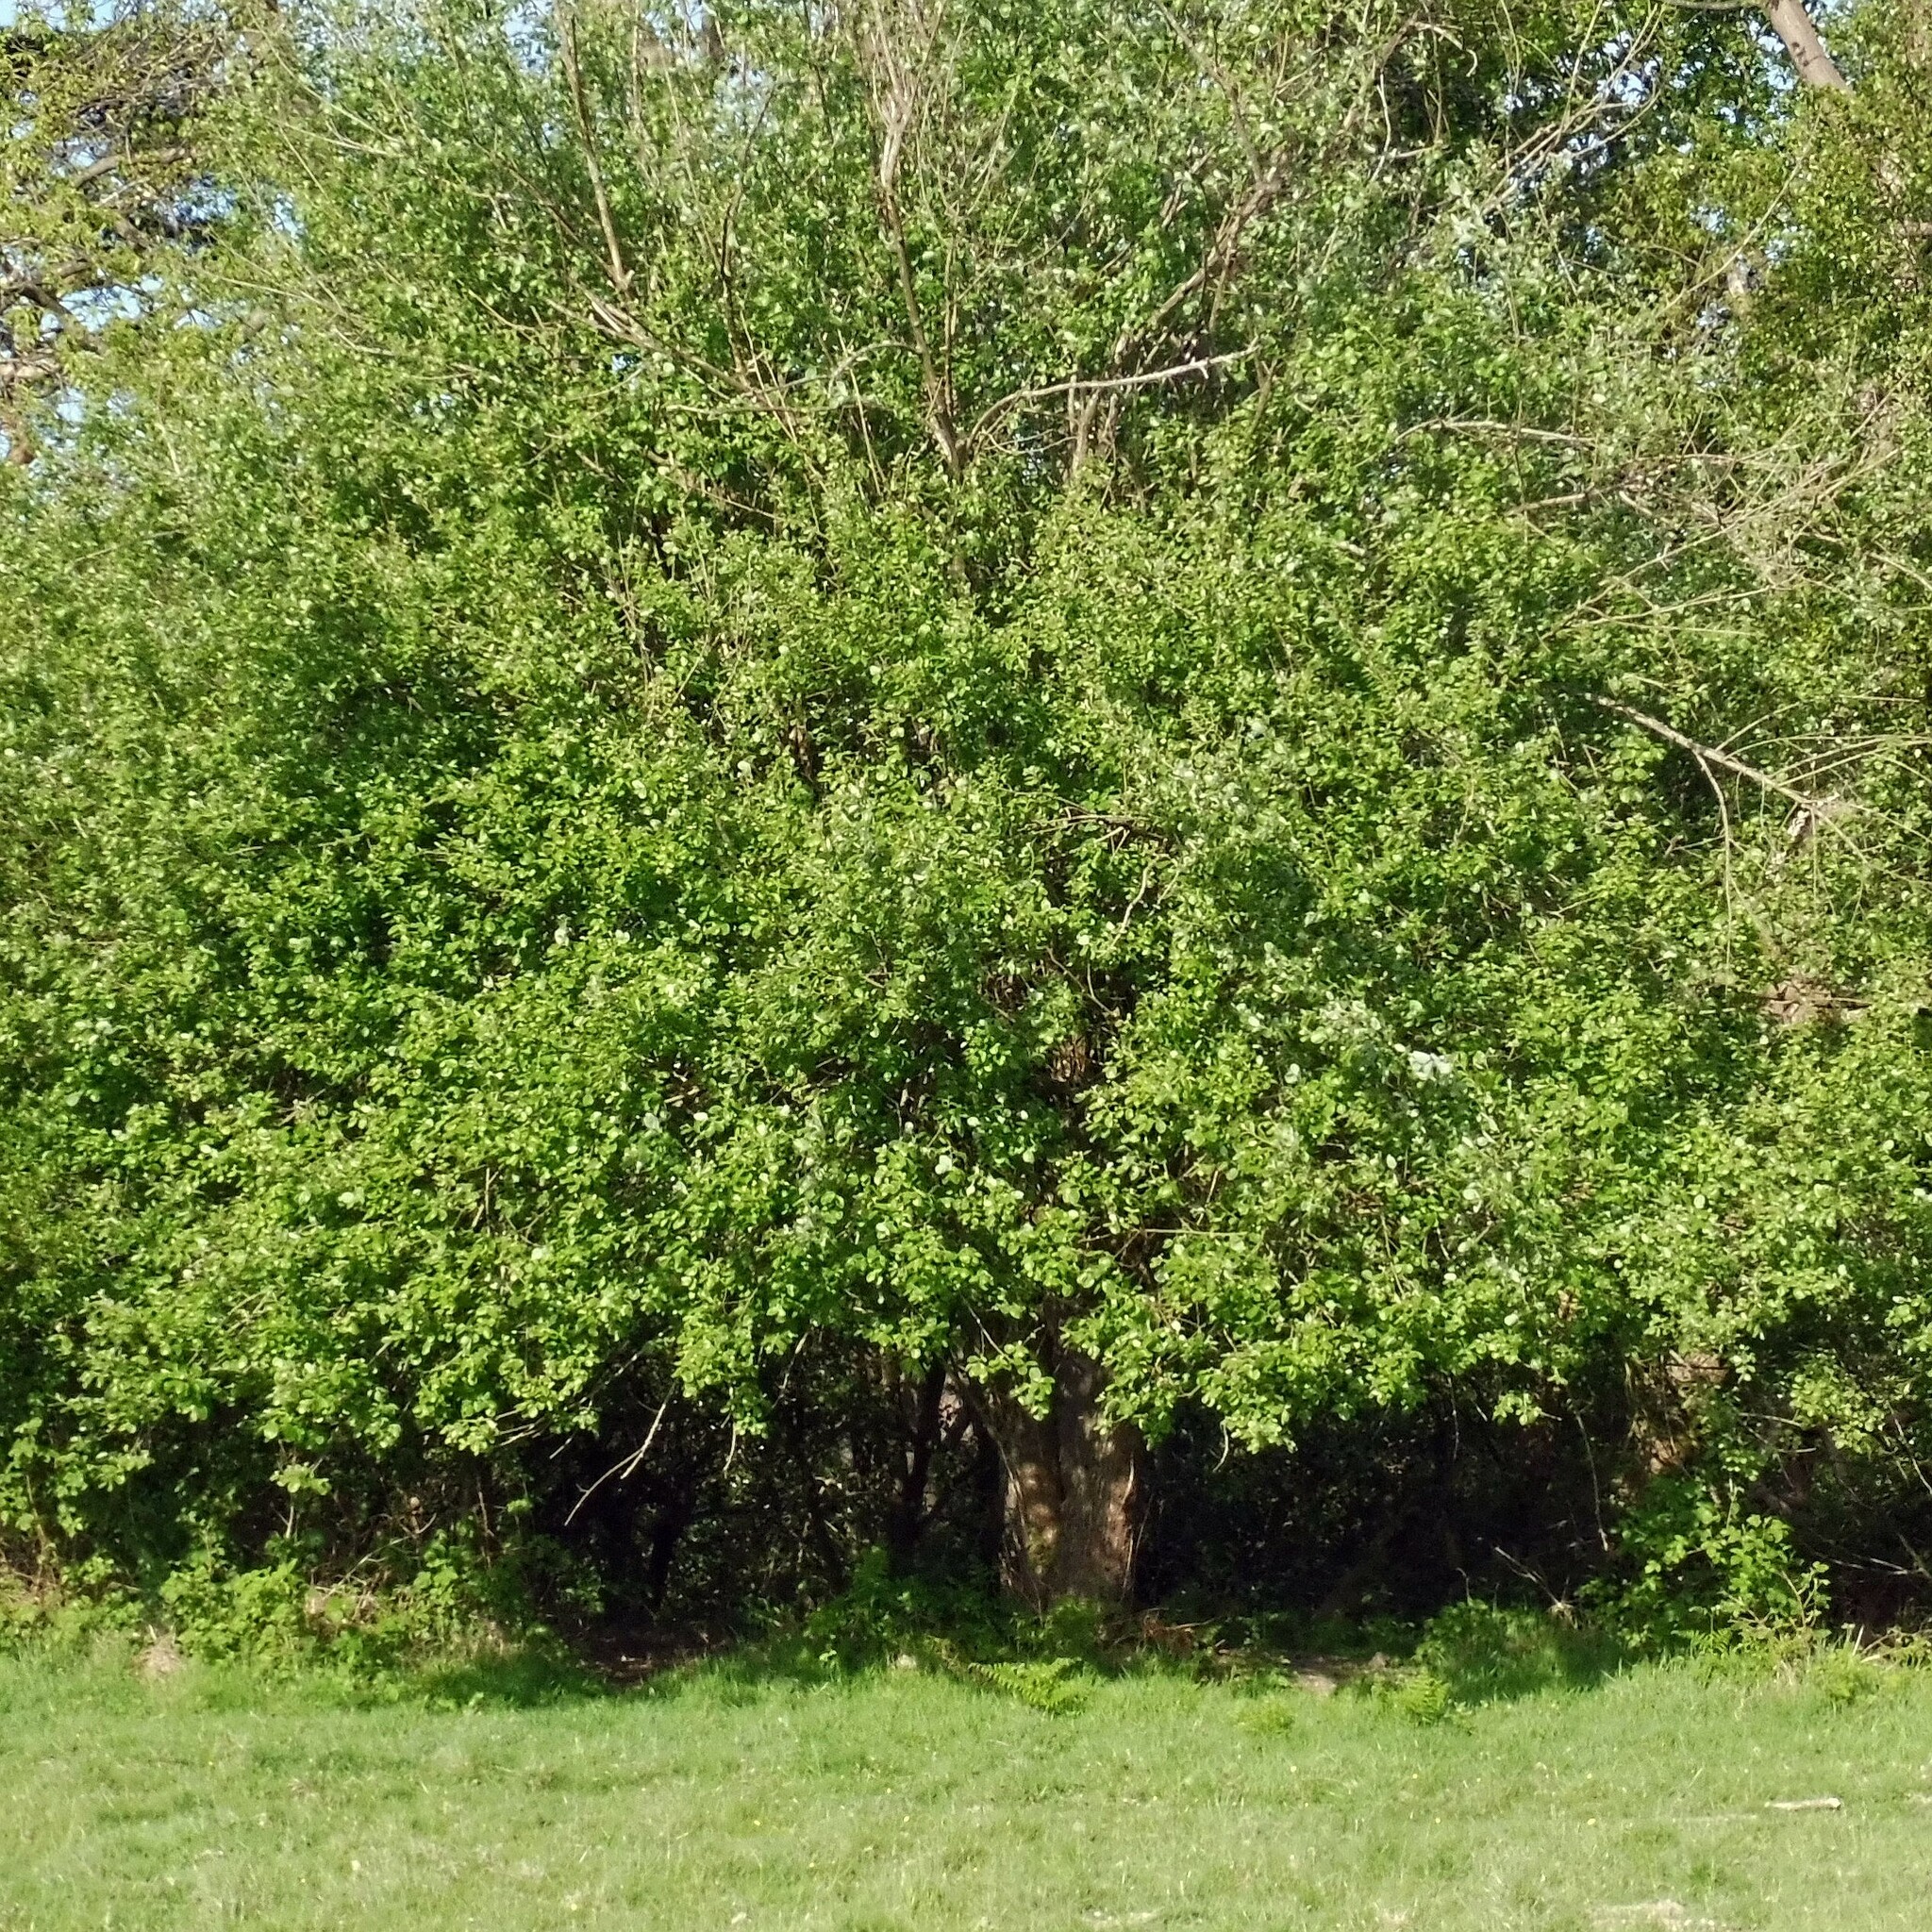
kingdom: Plantae
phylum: Tracheophyta
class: Magnoliopsida
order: Malpighiales
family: Salicaceae
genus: Salix
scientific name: Salix caprea
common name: Goat willow
